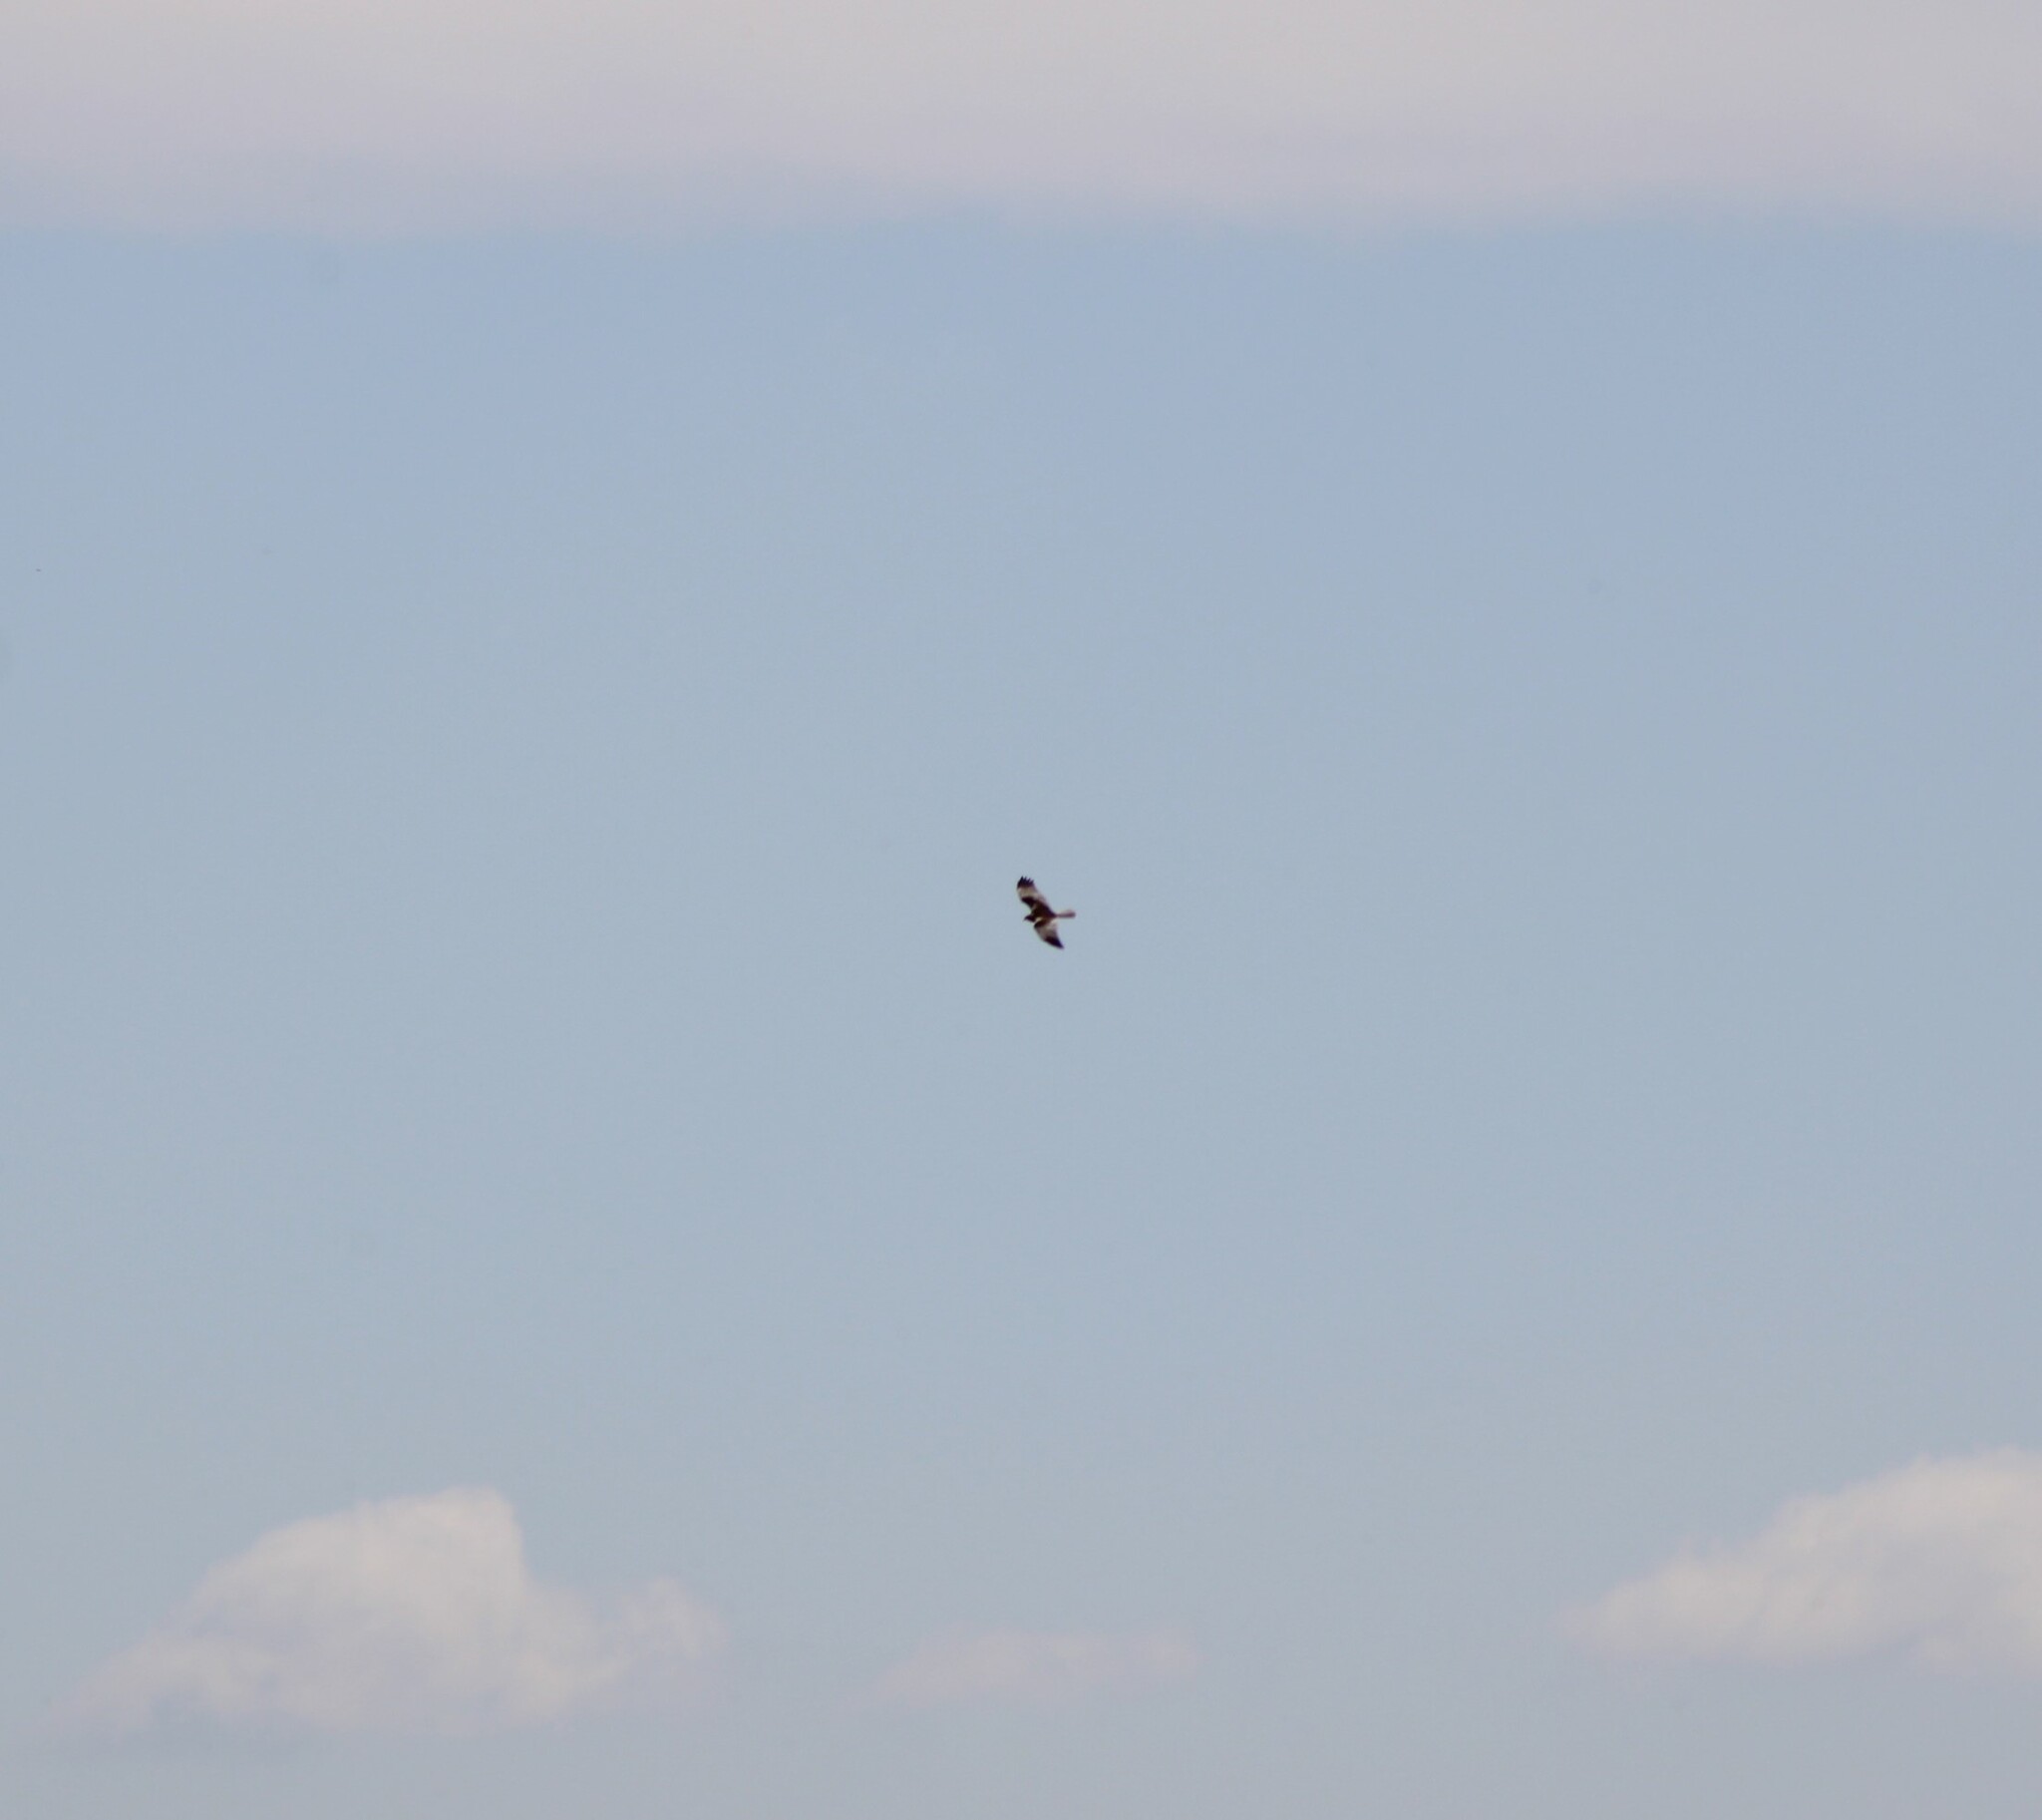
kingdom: Animalia
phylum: Chordata
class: Aves
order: Accipitriformes
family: Accipitridae
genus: Circus
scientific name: Circus aeruginosus
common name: Western marsh harrier
